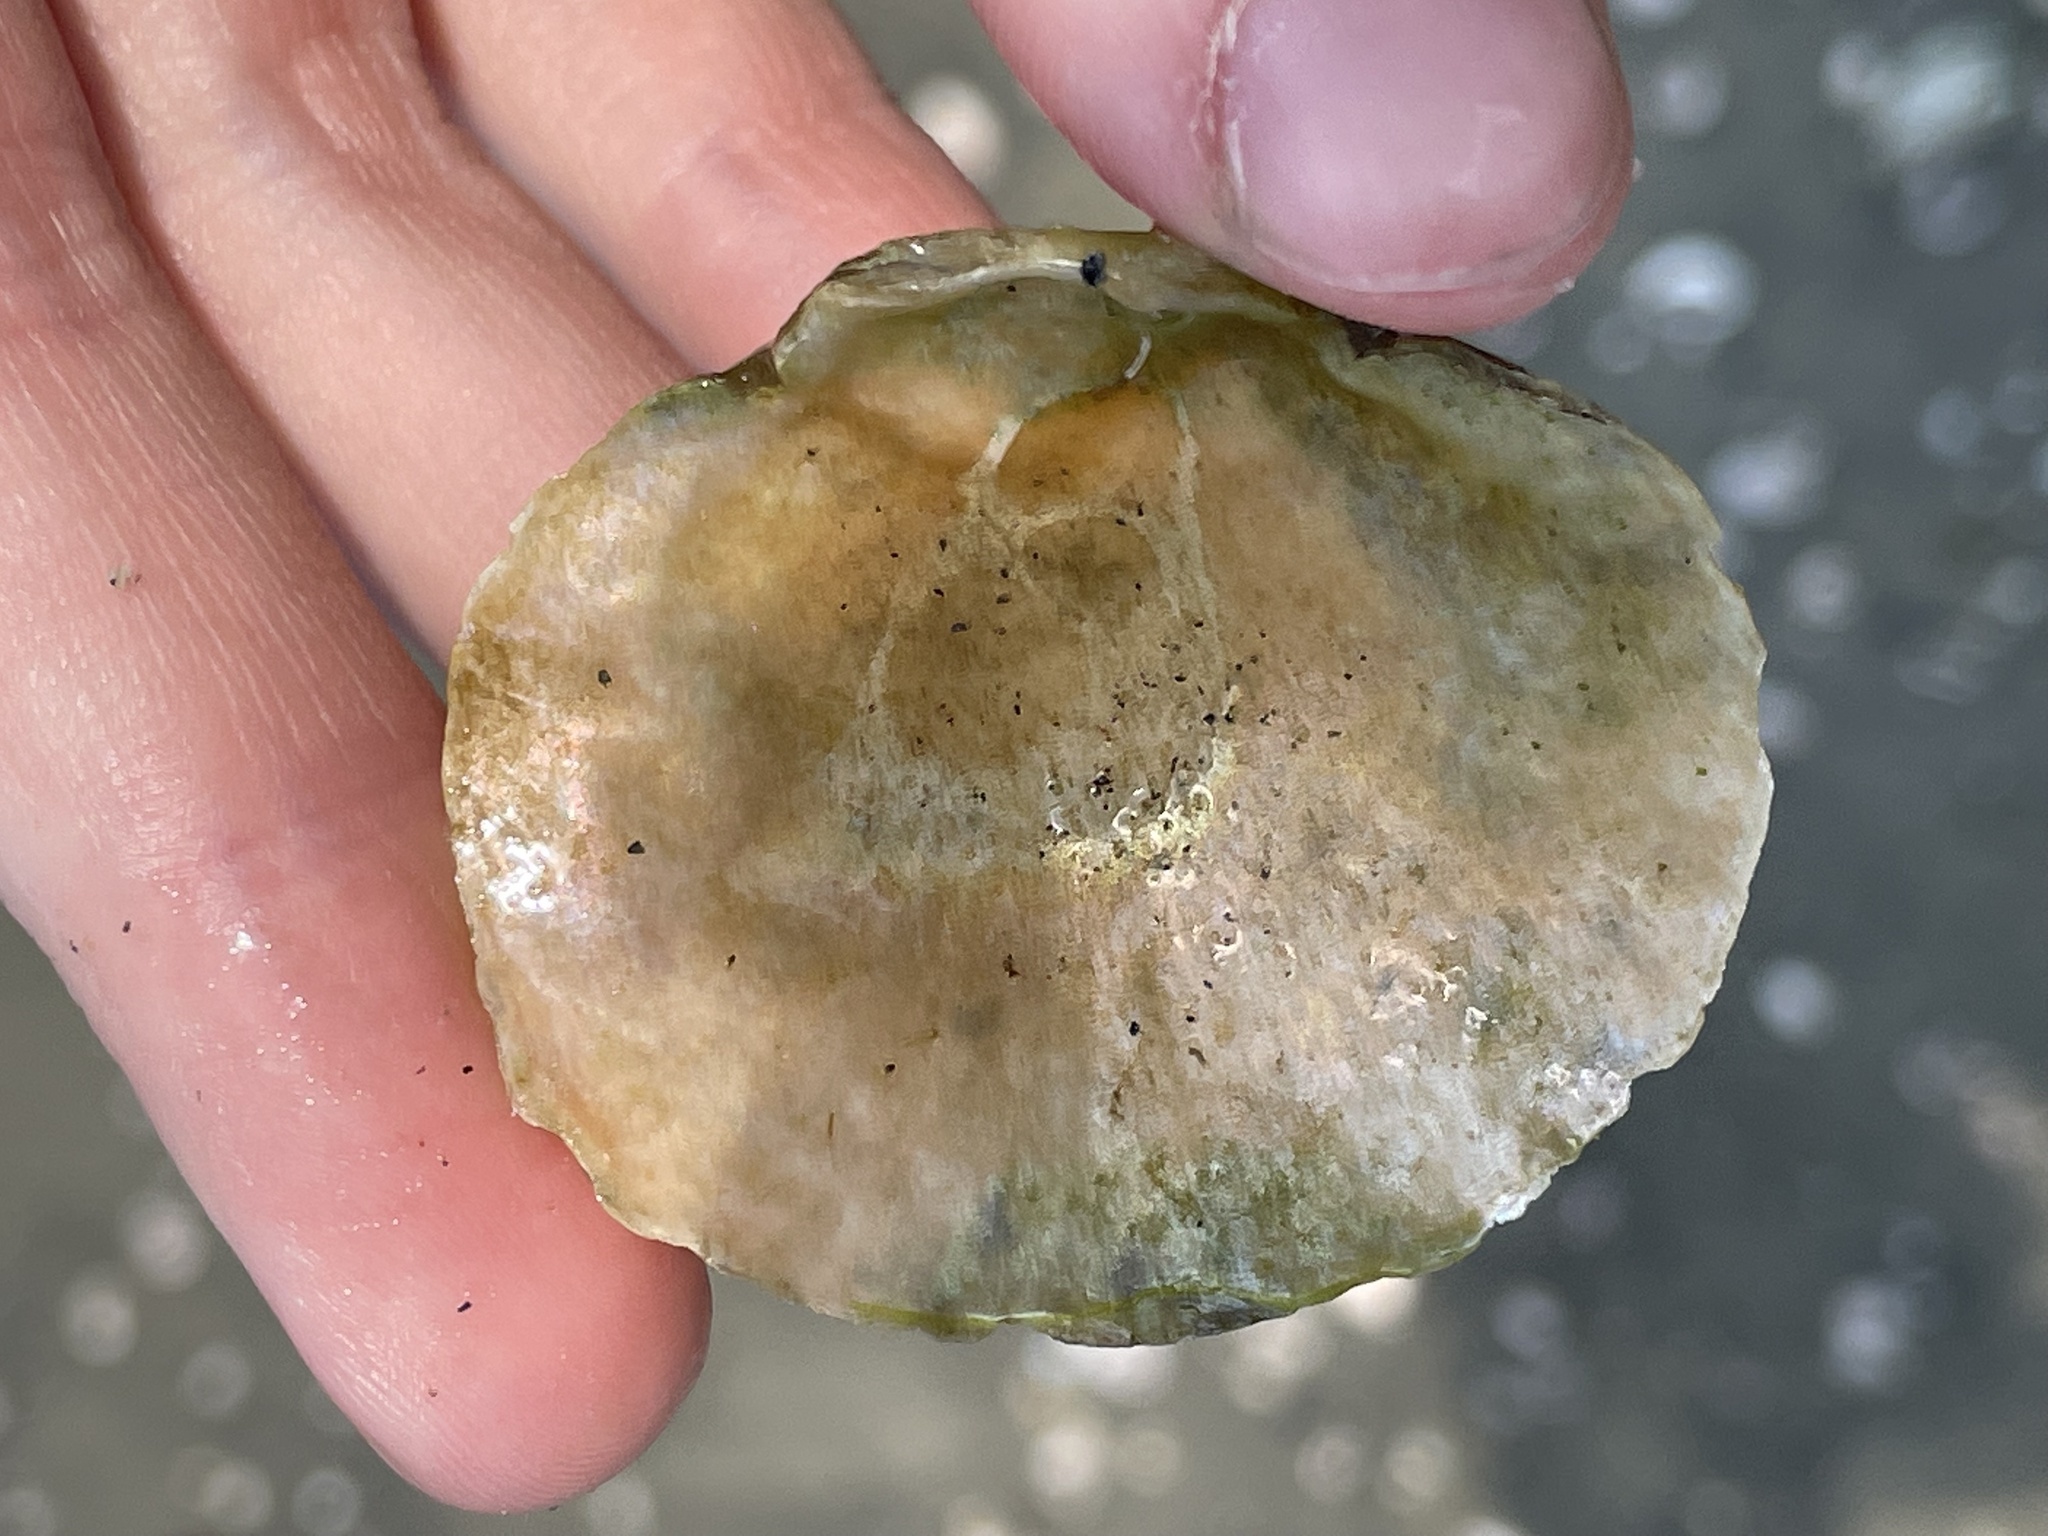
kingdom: Animalia
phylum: Mollusca
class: Bivalvia
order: Pectinida
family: Anomiidae
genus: Anomia
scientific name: Anomia simplex
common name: Common jingle shell
